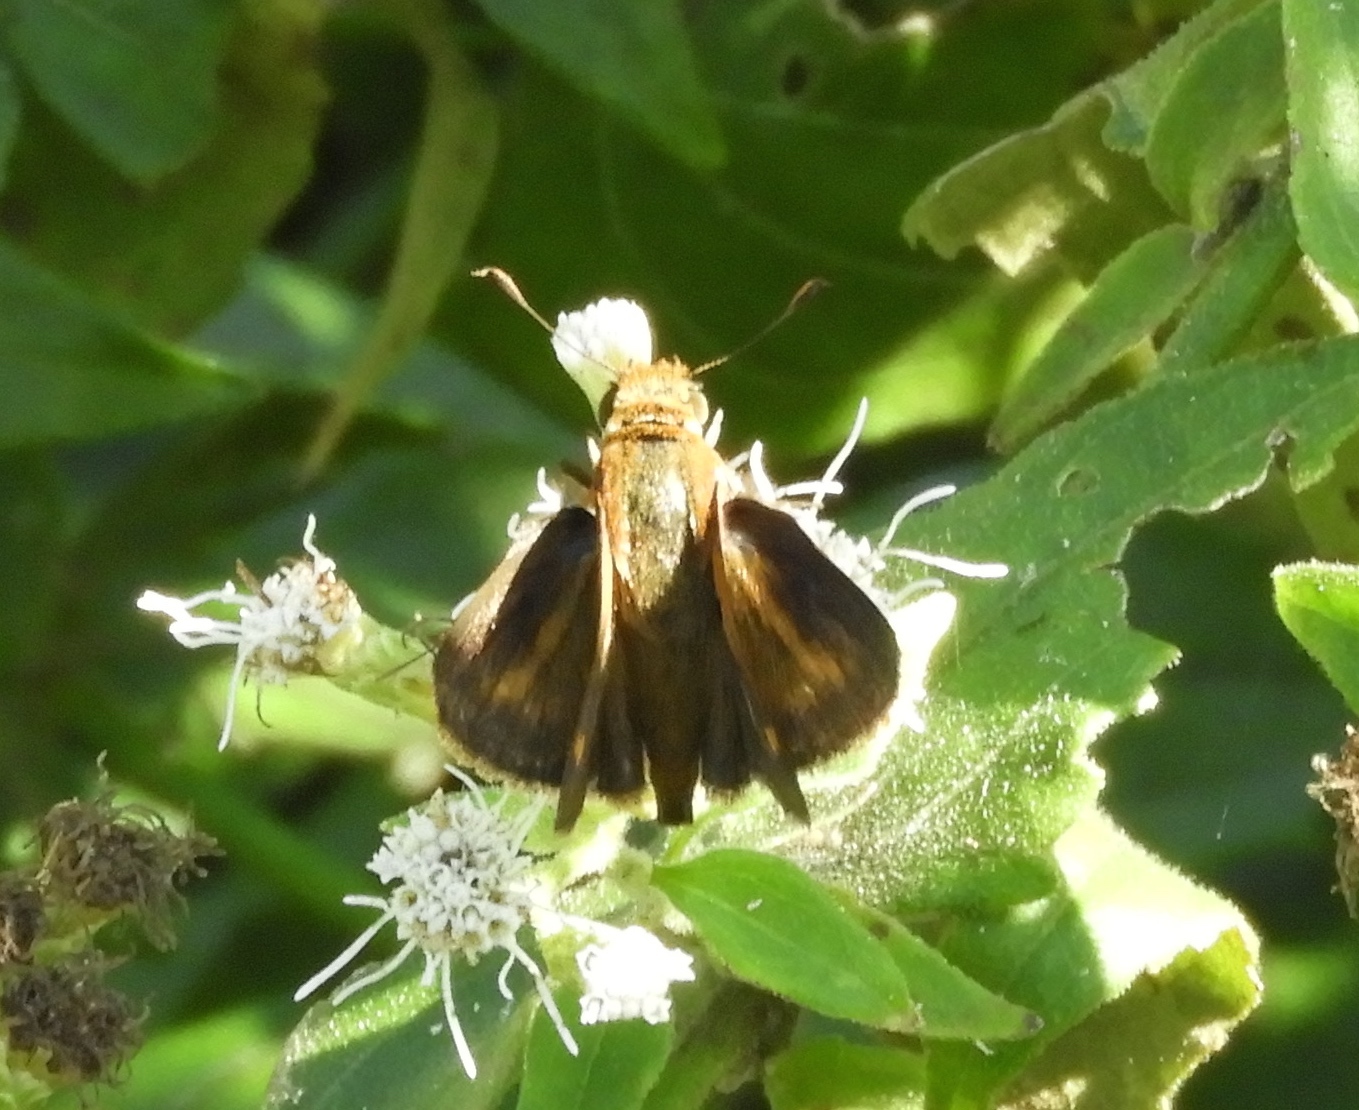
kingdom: Animalia
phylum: Arthropoda
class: Insecta
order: Lepidoptera
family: Hesperiidae
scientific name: Hesperiidae
